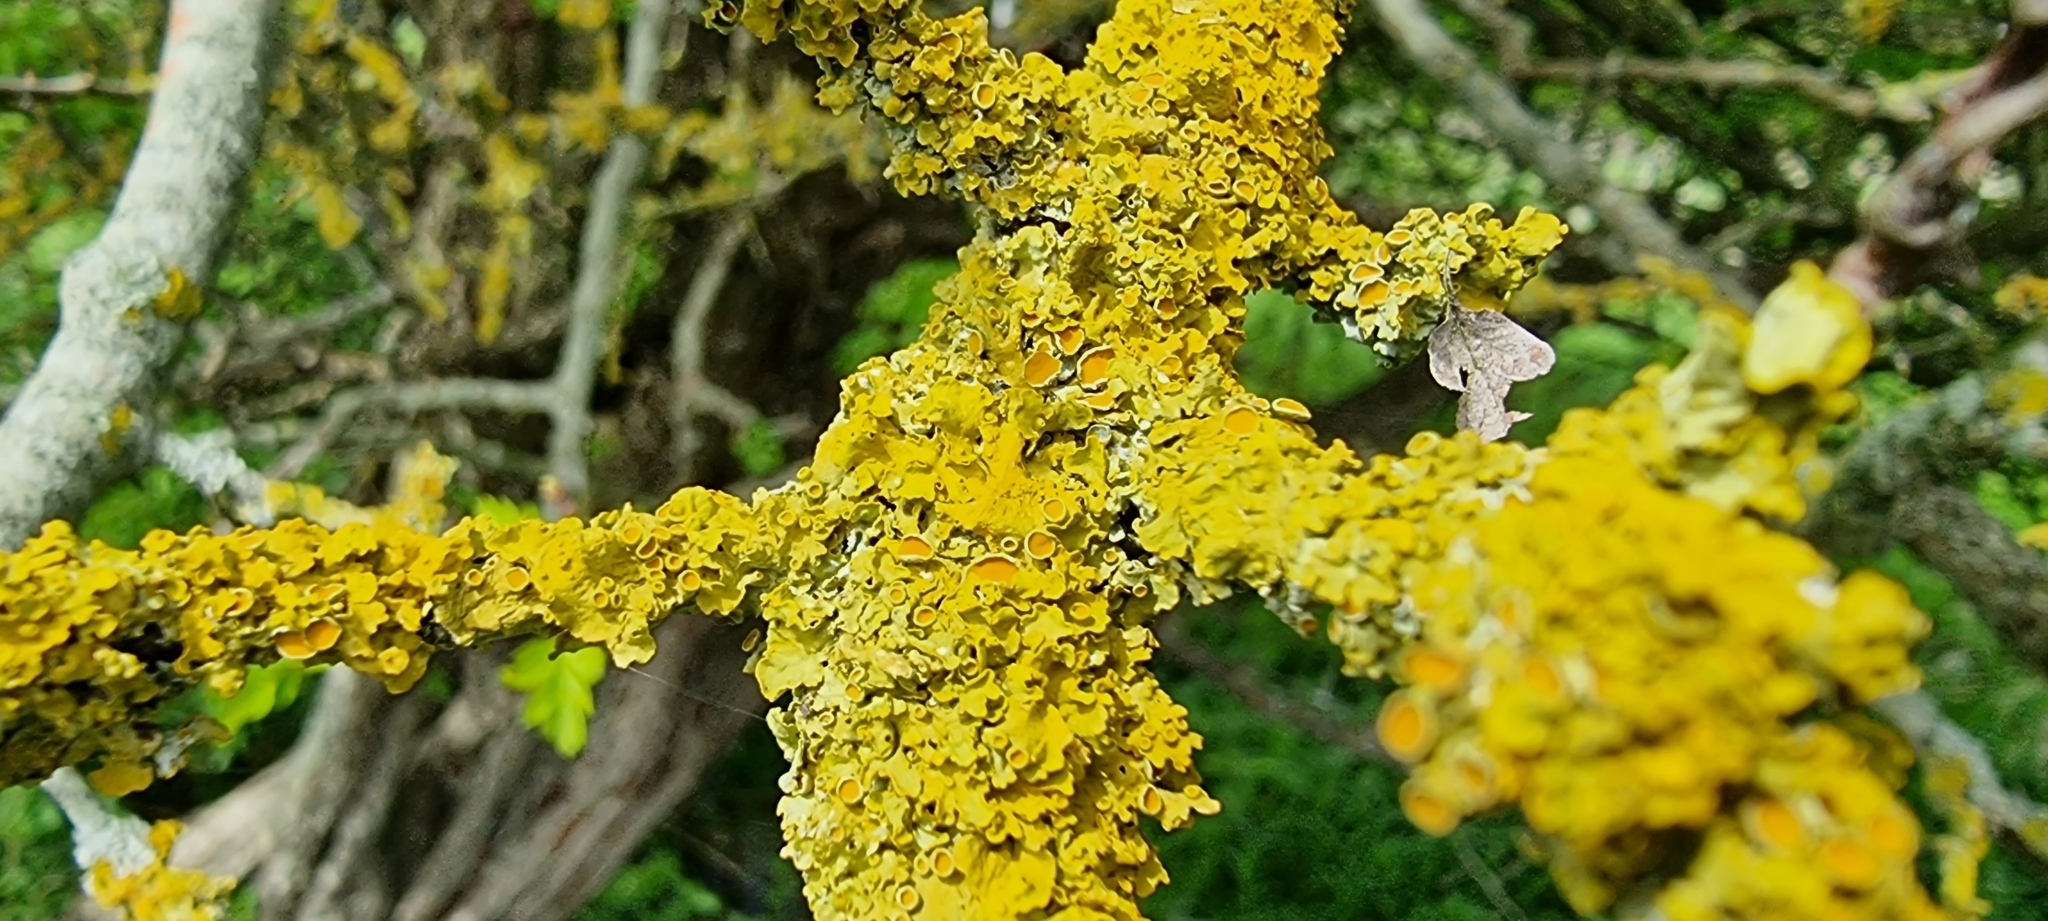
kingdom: Fungi
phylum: Ascomycota
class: Lecanoromycetes
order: Teloschistales
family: Teloschistaceae
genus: Xanthoria
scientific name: Xanthoria parietina
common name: Common orange lichen
